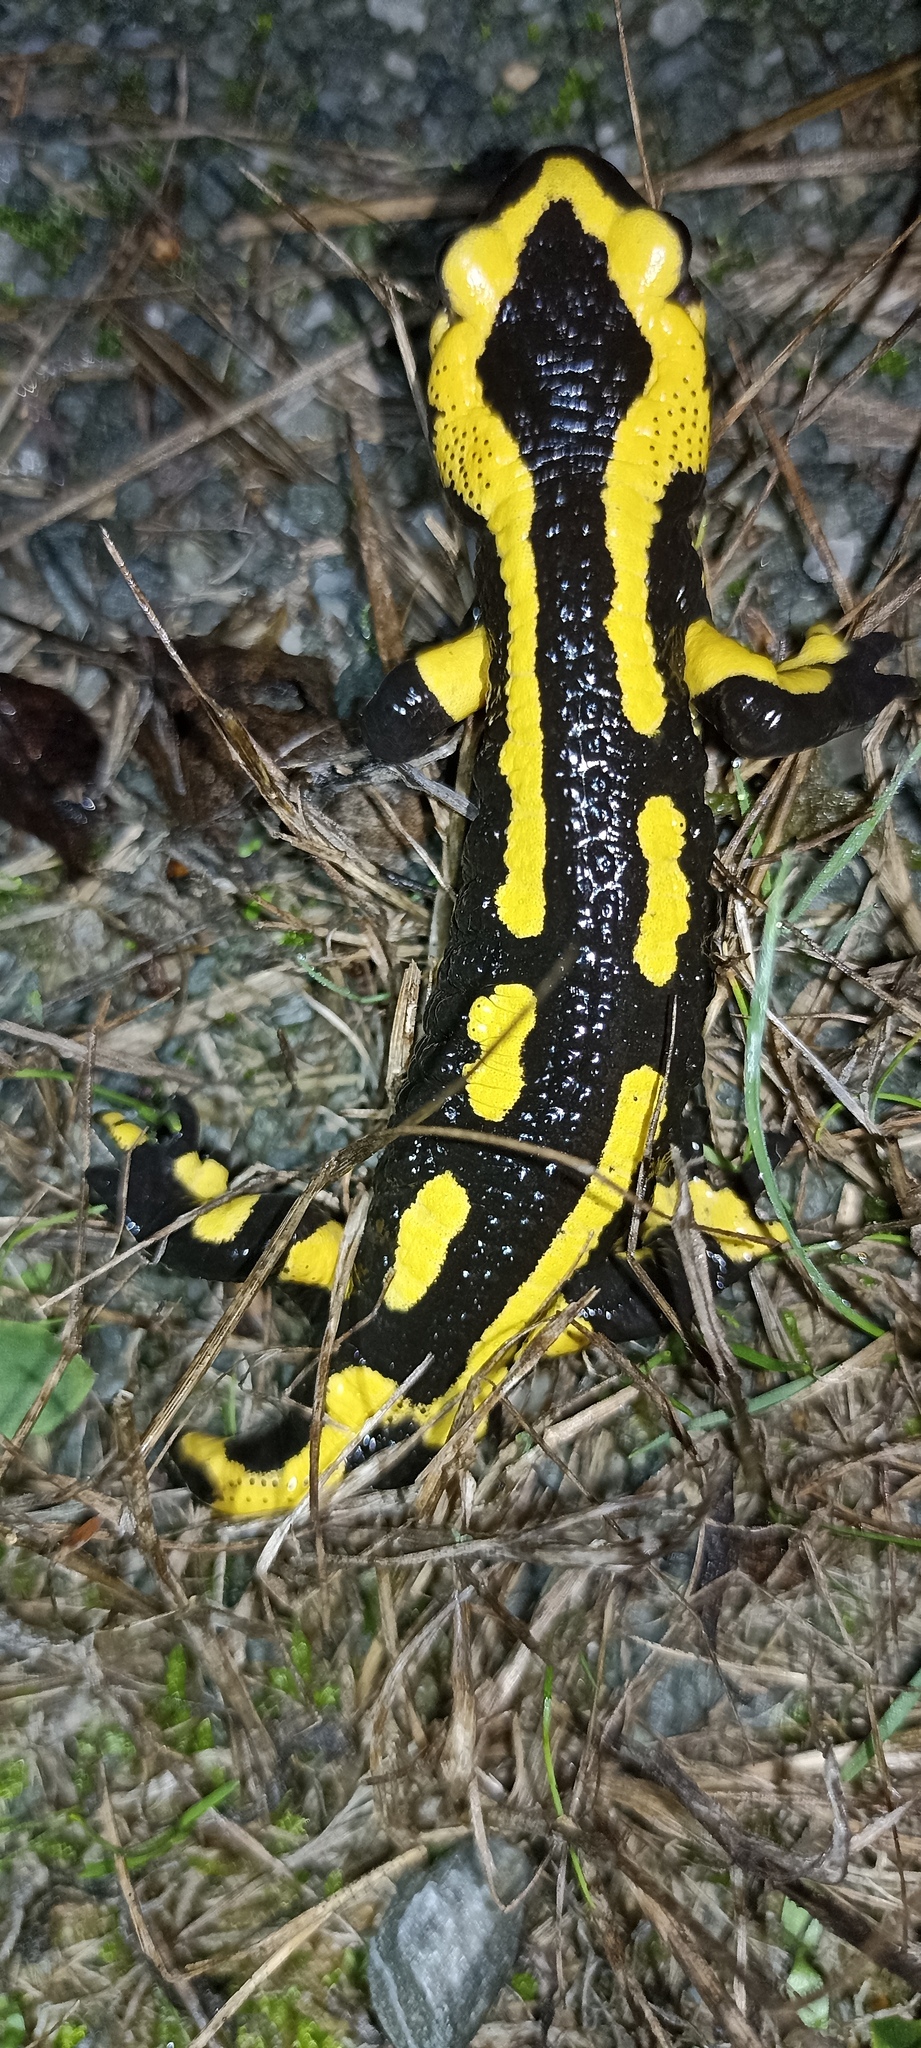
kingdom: Animalia
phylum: Chordata
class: Amphibia
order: Caudata
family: Salamandridae
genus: Salamandra
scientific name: Salamandra salamandra
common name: Fire salamander
